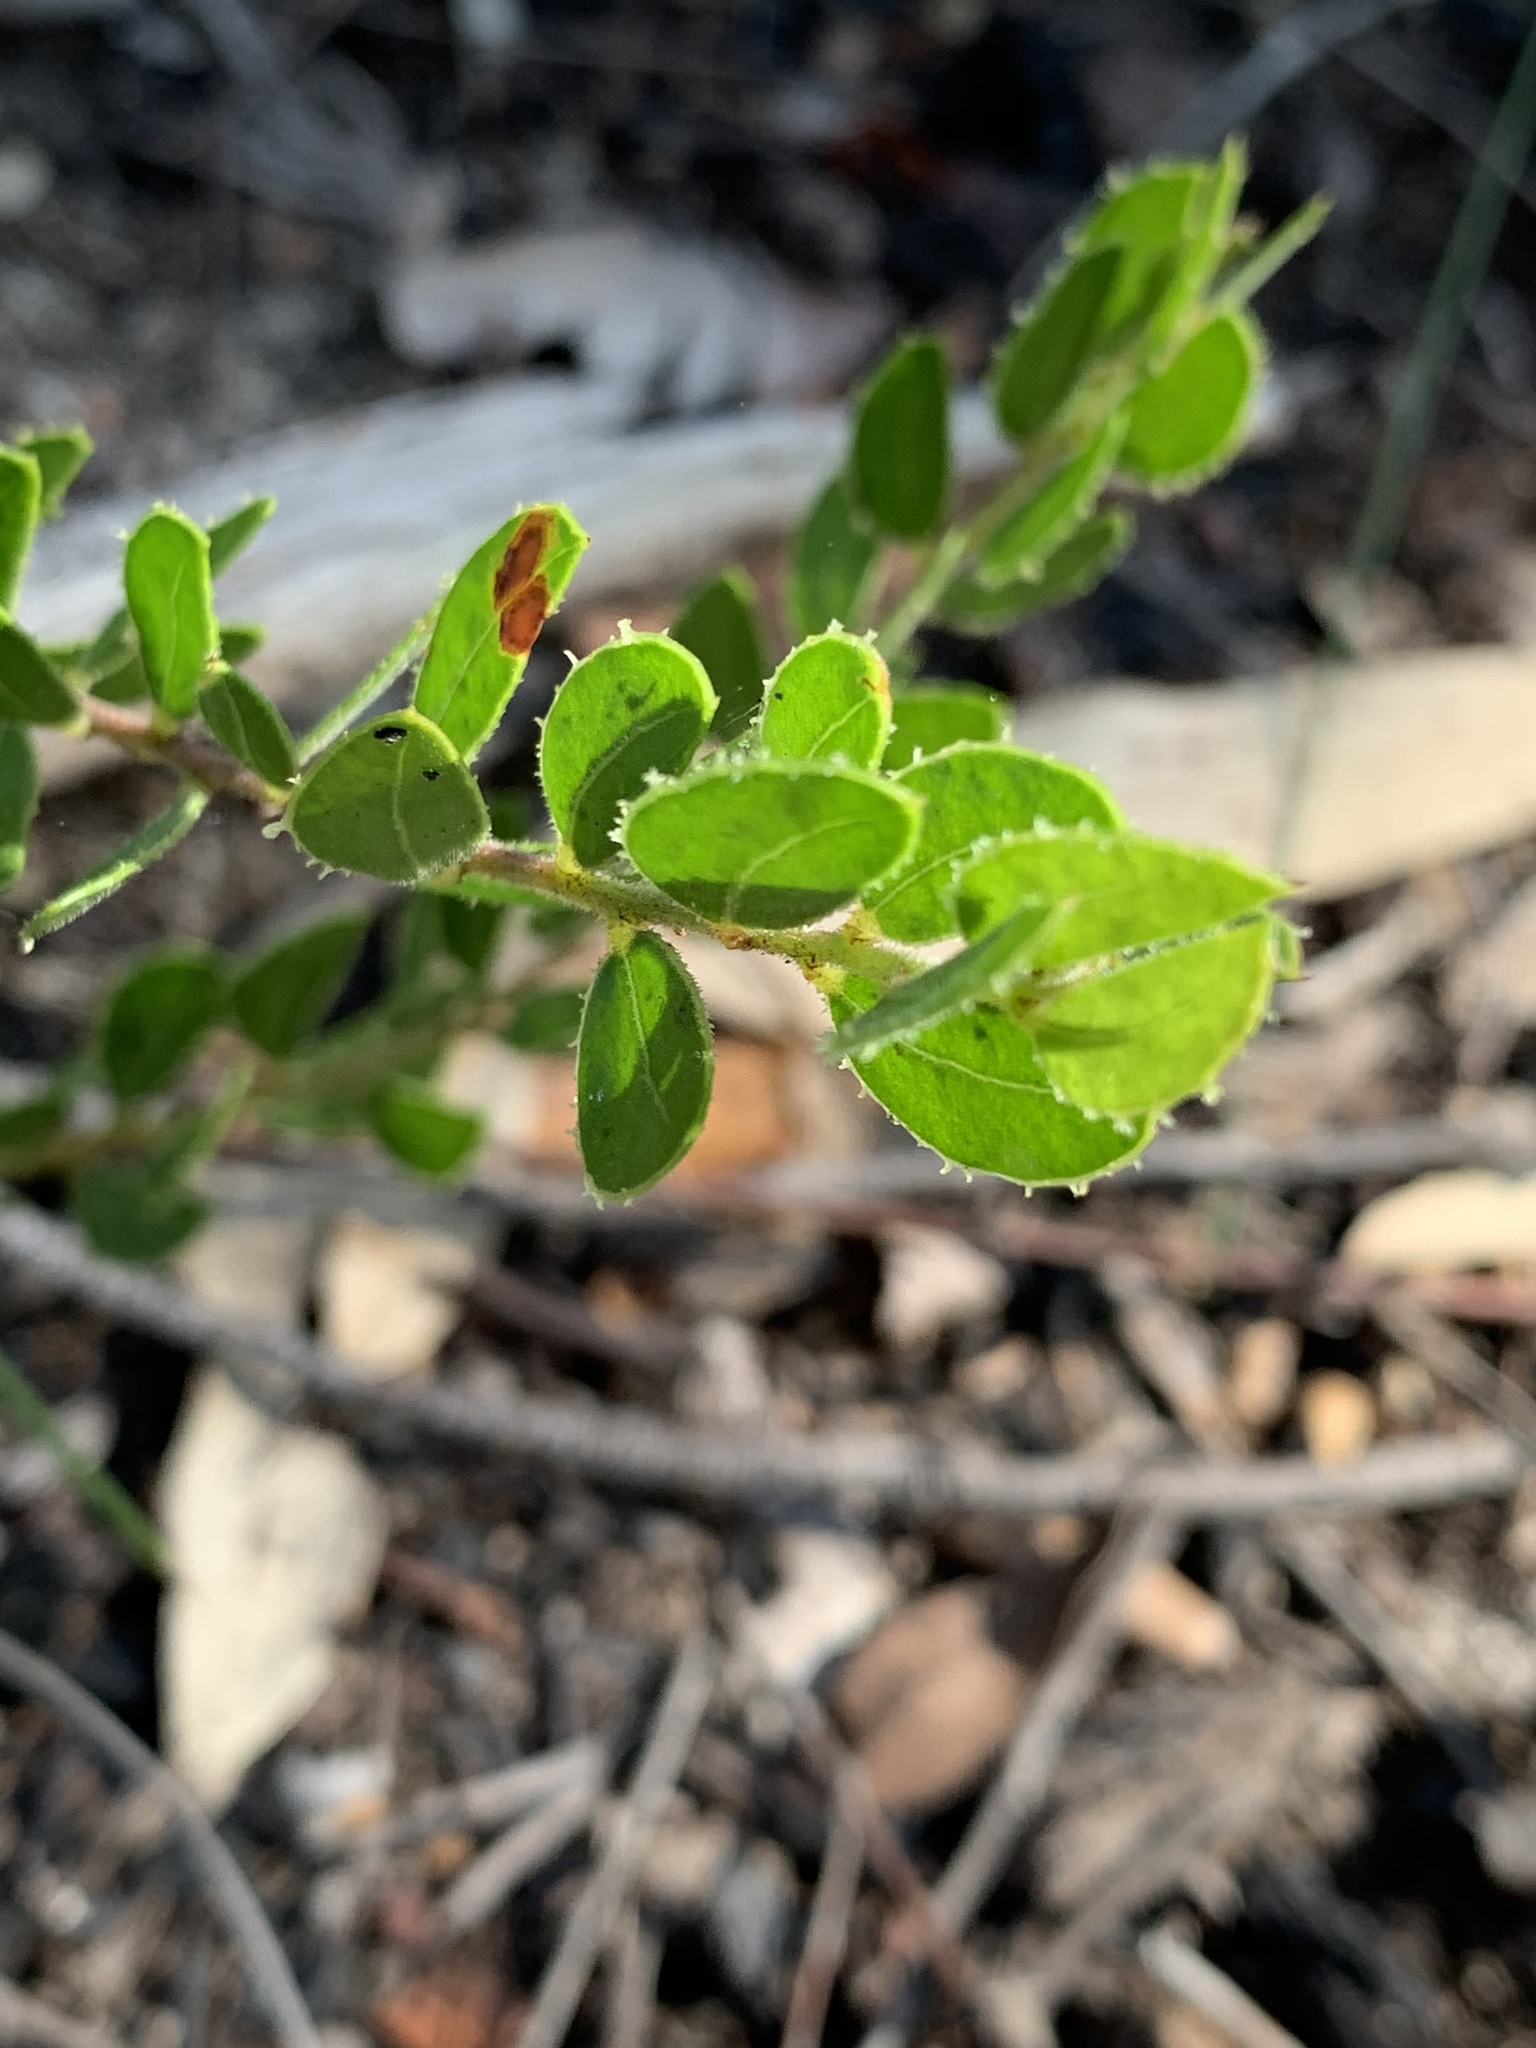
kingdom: Plantae
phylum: Tracheophyta
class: Magnoliopsida
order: Fabales
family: Fabaceae
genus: Acacia
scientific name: Acacia hispidula
